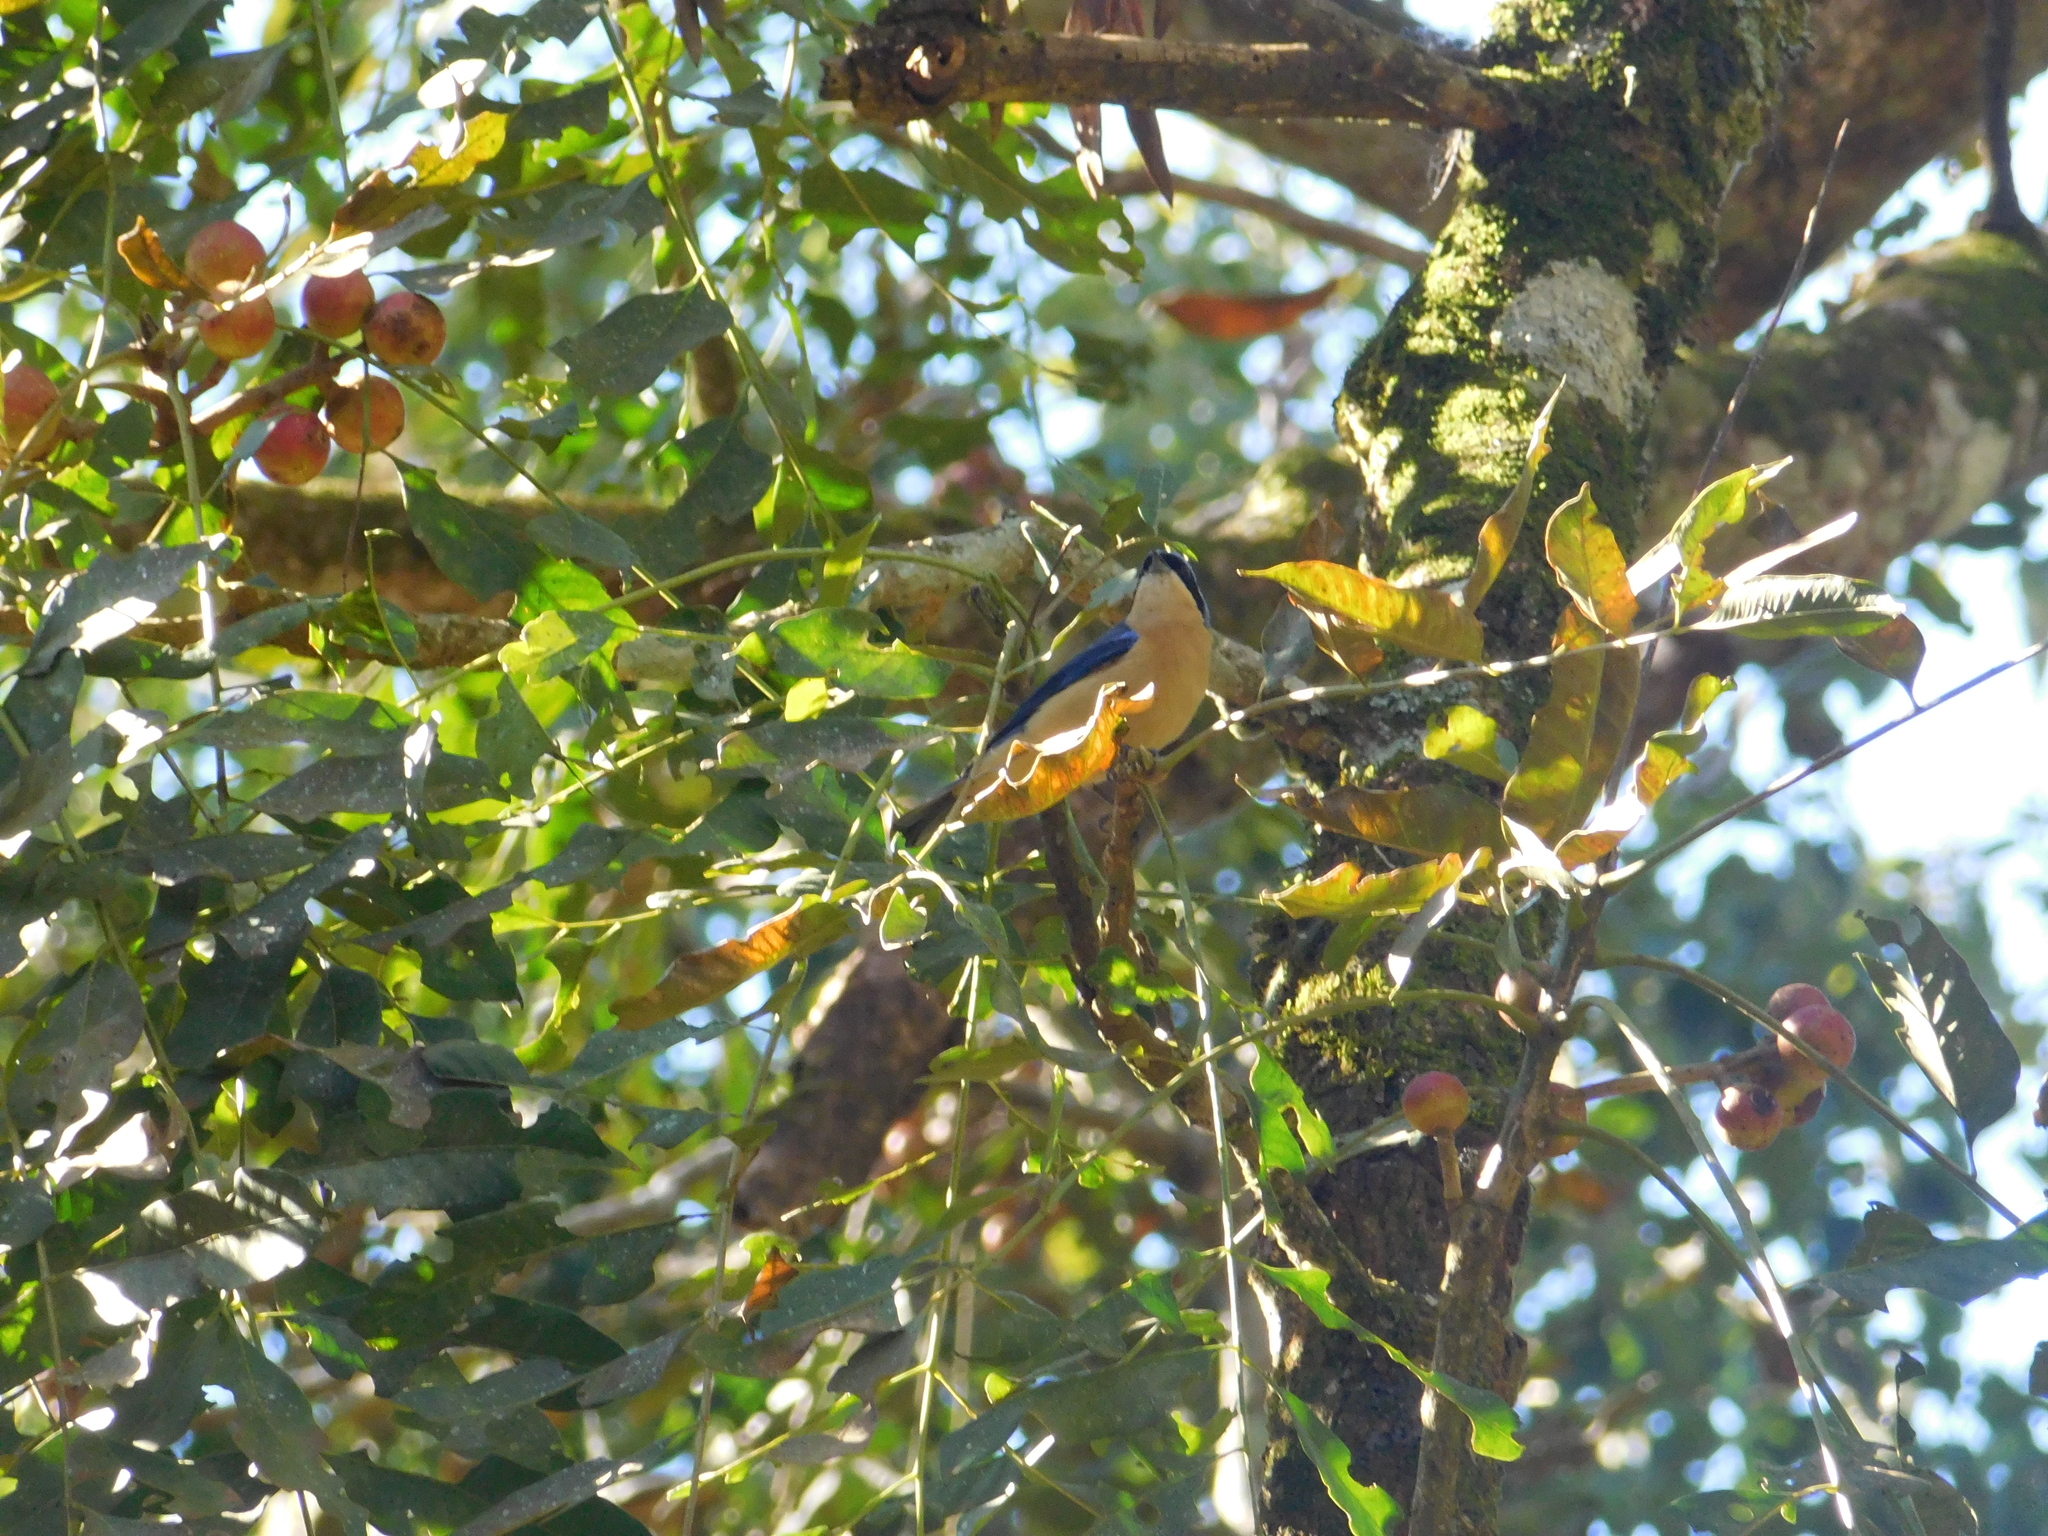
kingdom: Animalia
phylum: Chordata
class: Aves
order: Passeriformes
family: Thraupidae
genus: Pipraeidea
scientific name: Pipraeidea melanonota
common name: Fawn-breasted tanager
